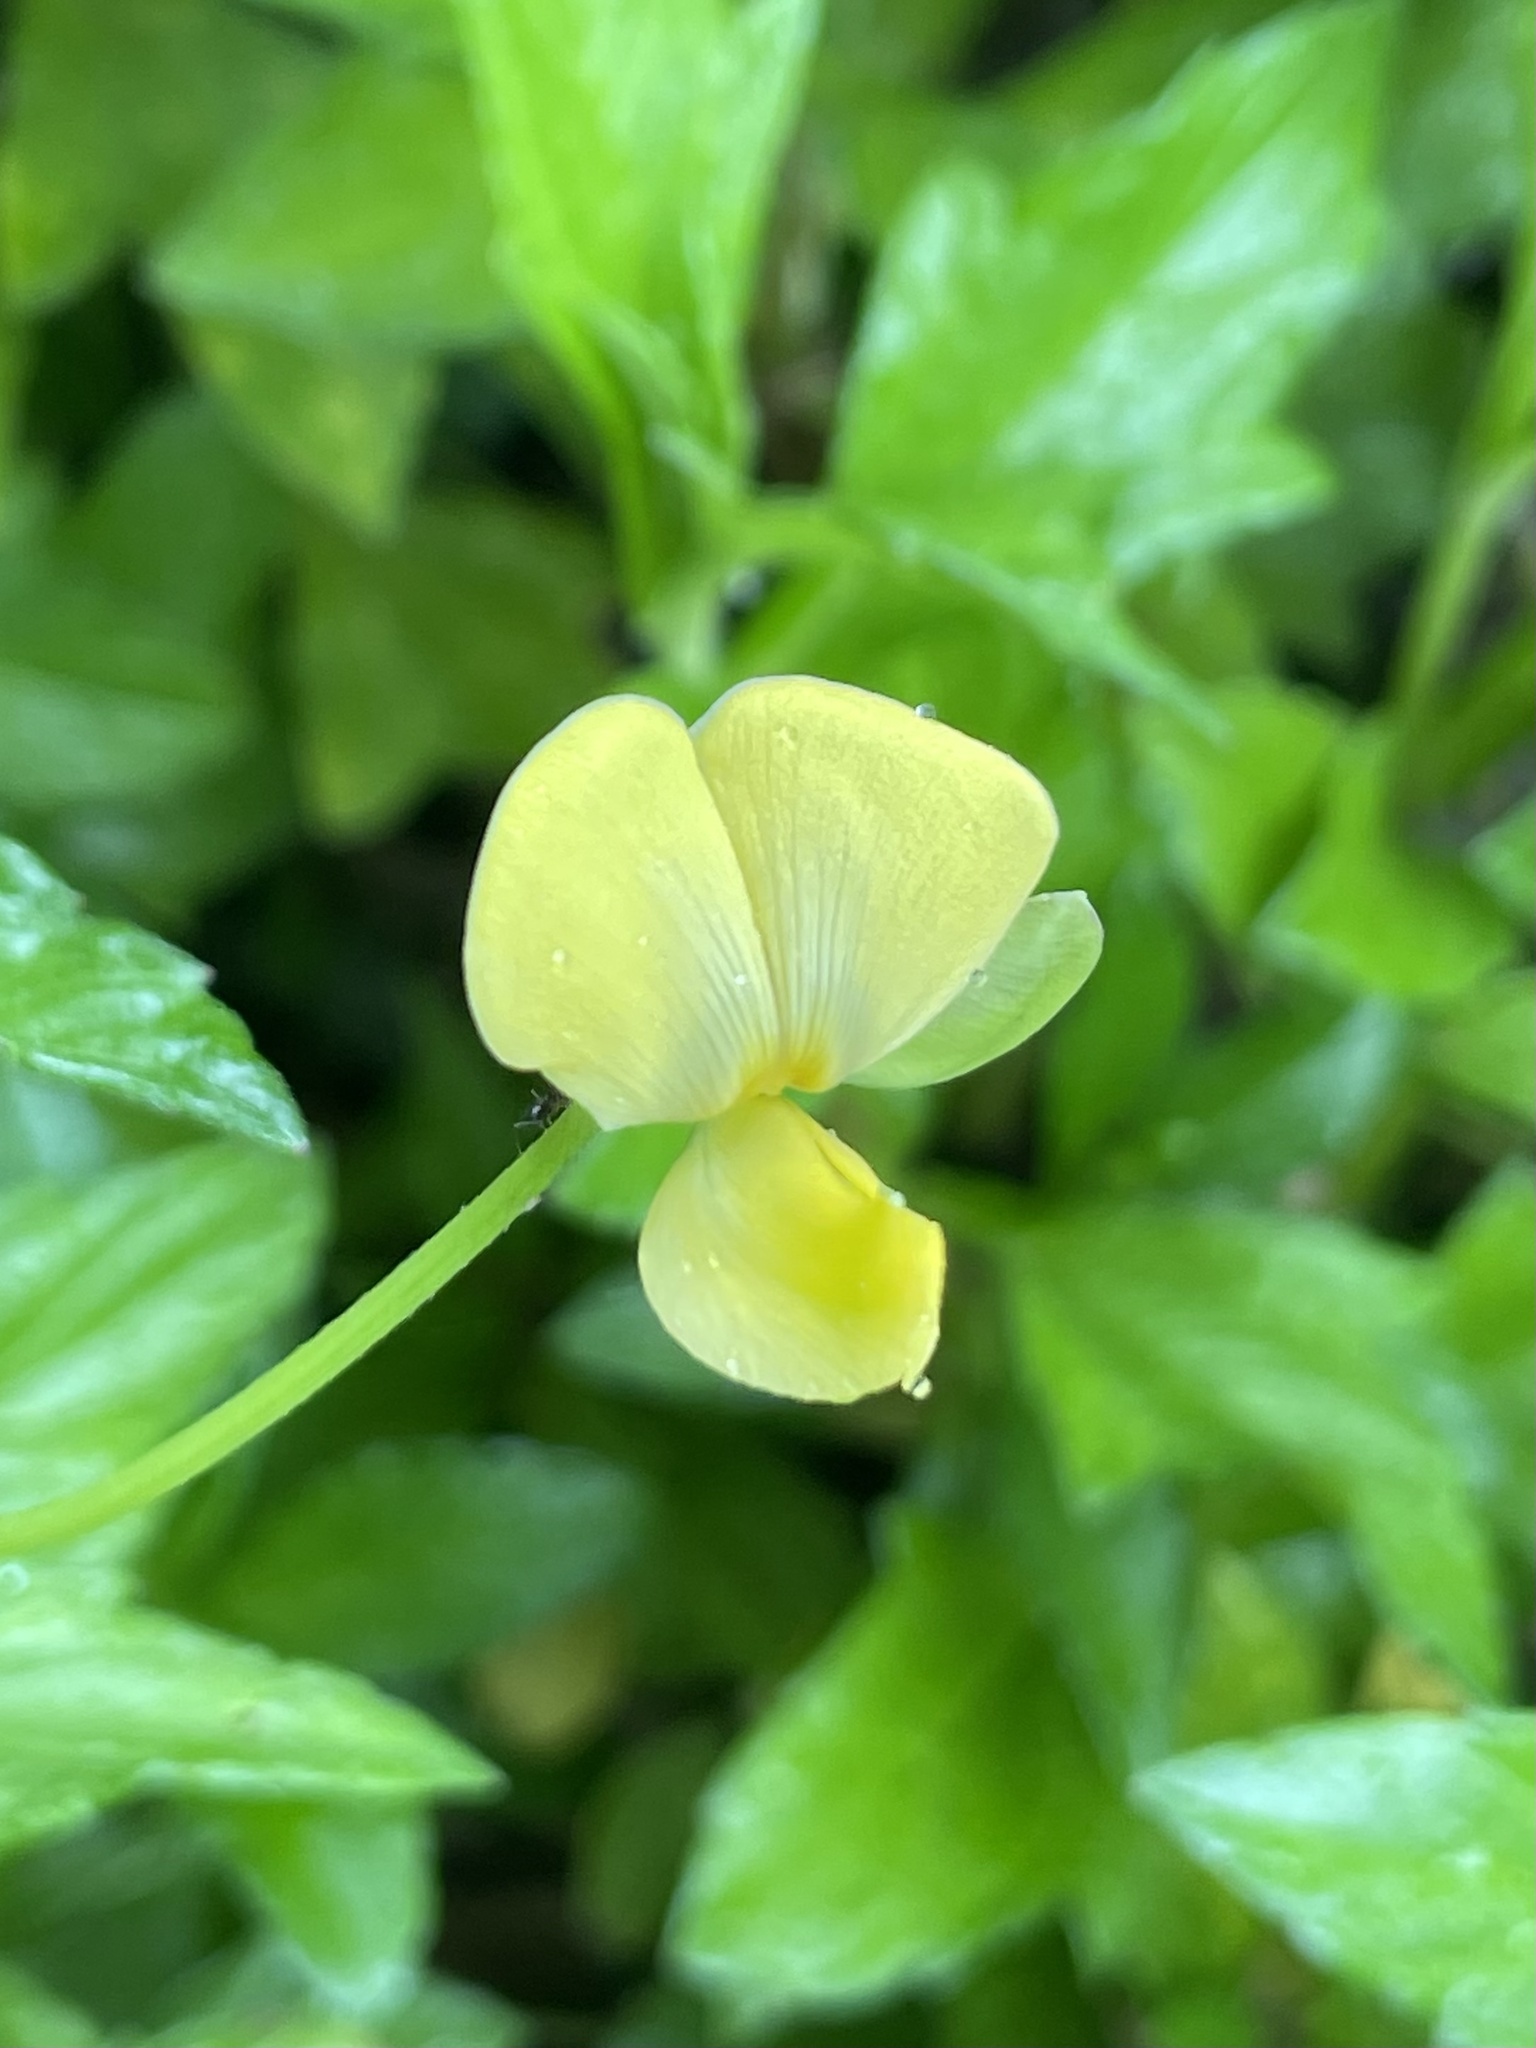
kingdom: Plantae
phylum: Tracheophyta
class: Magnoliopsida
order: Fabales
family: Fabaceae
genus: Vigna
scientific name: Vigna luteola
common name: Hairypod cowpea
